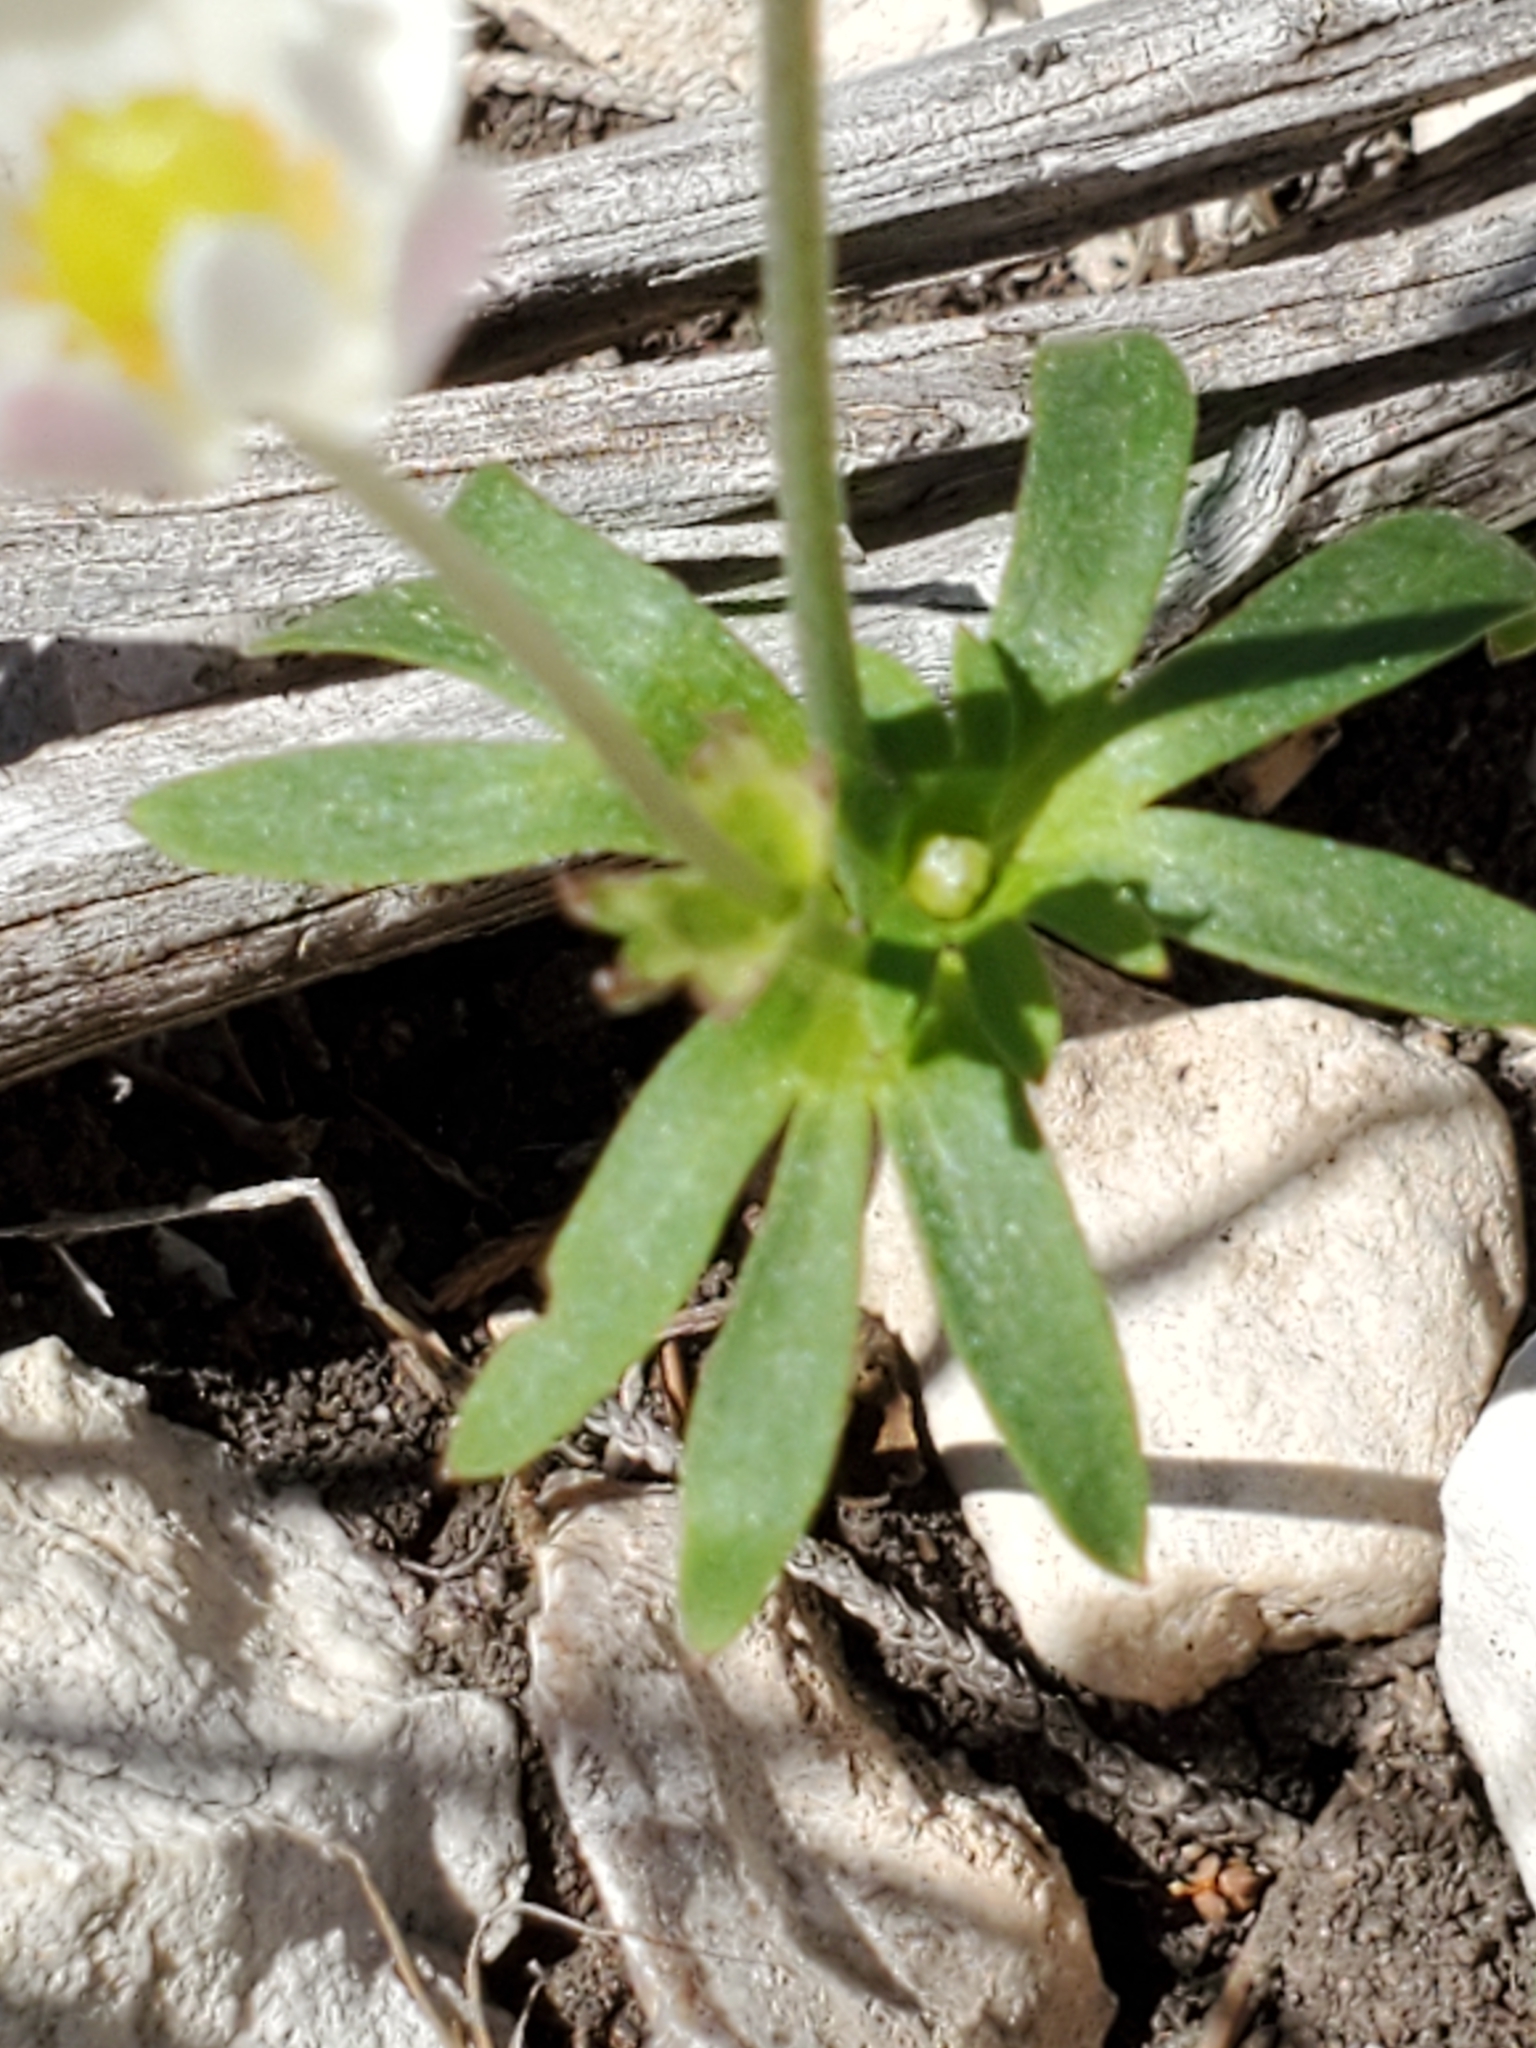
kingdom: Plantae
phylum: Tracheophyta
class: Magnoliopsida
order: Ranunculales
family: Ranunculaceae
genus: Anemone
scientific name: Anemone edwardsiana
